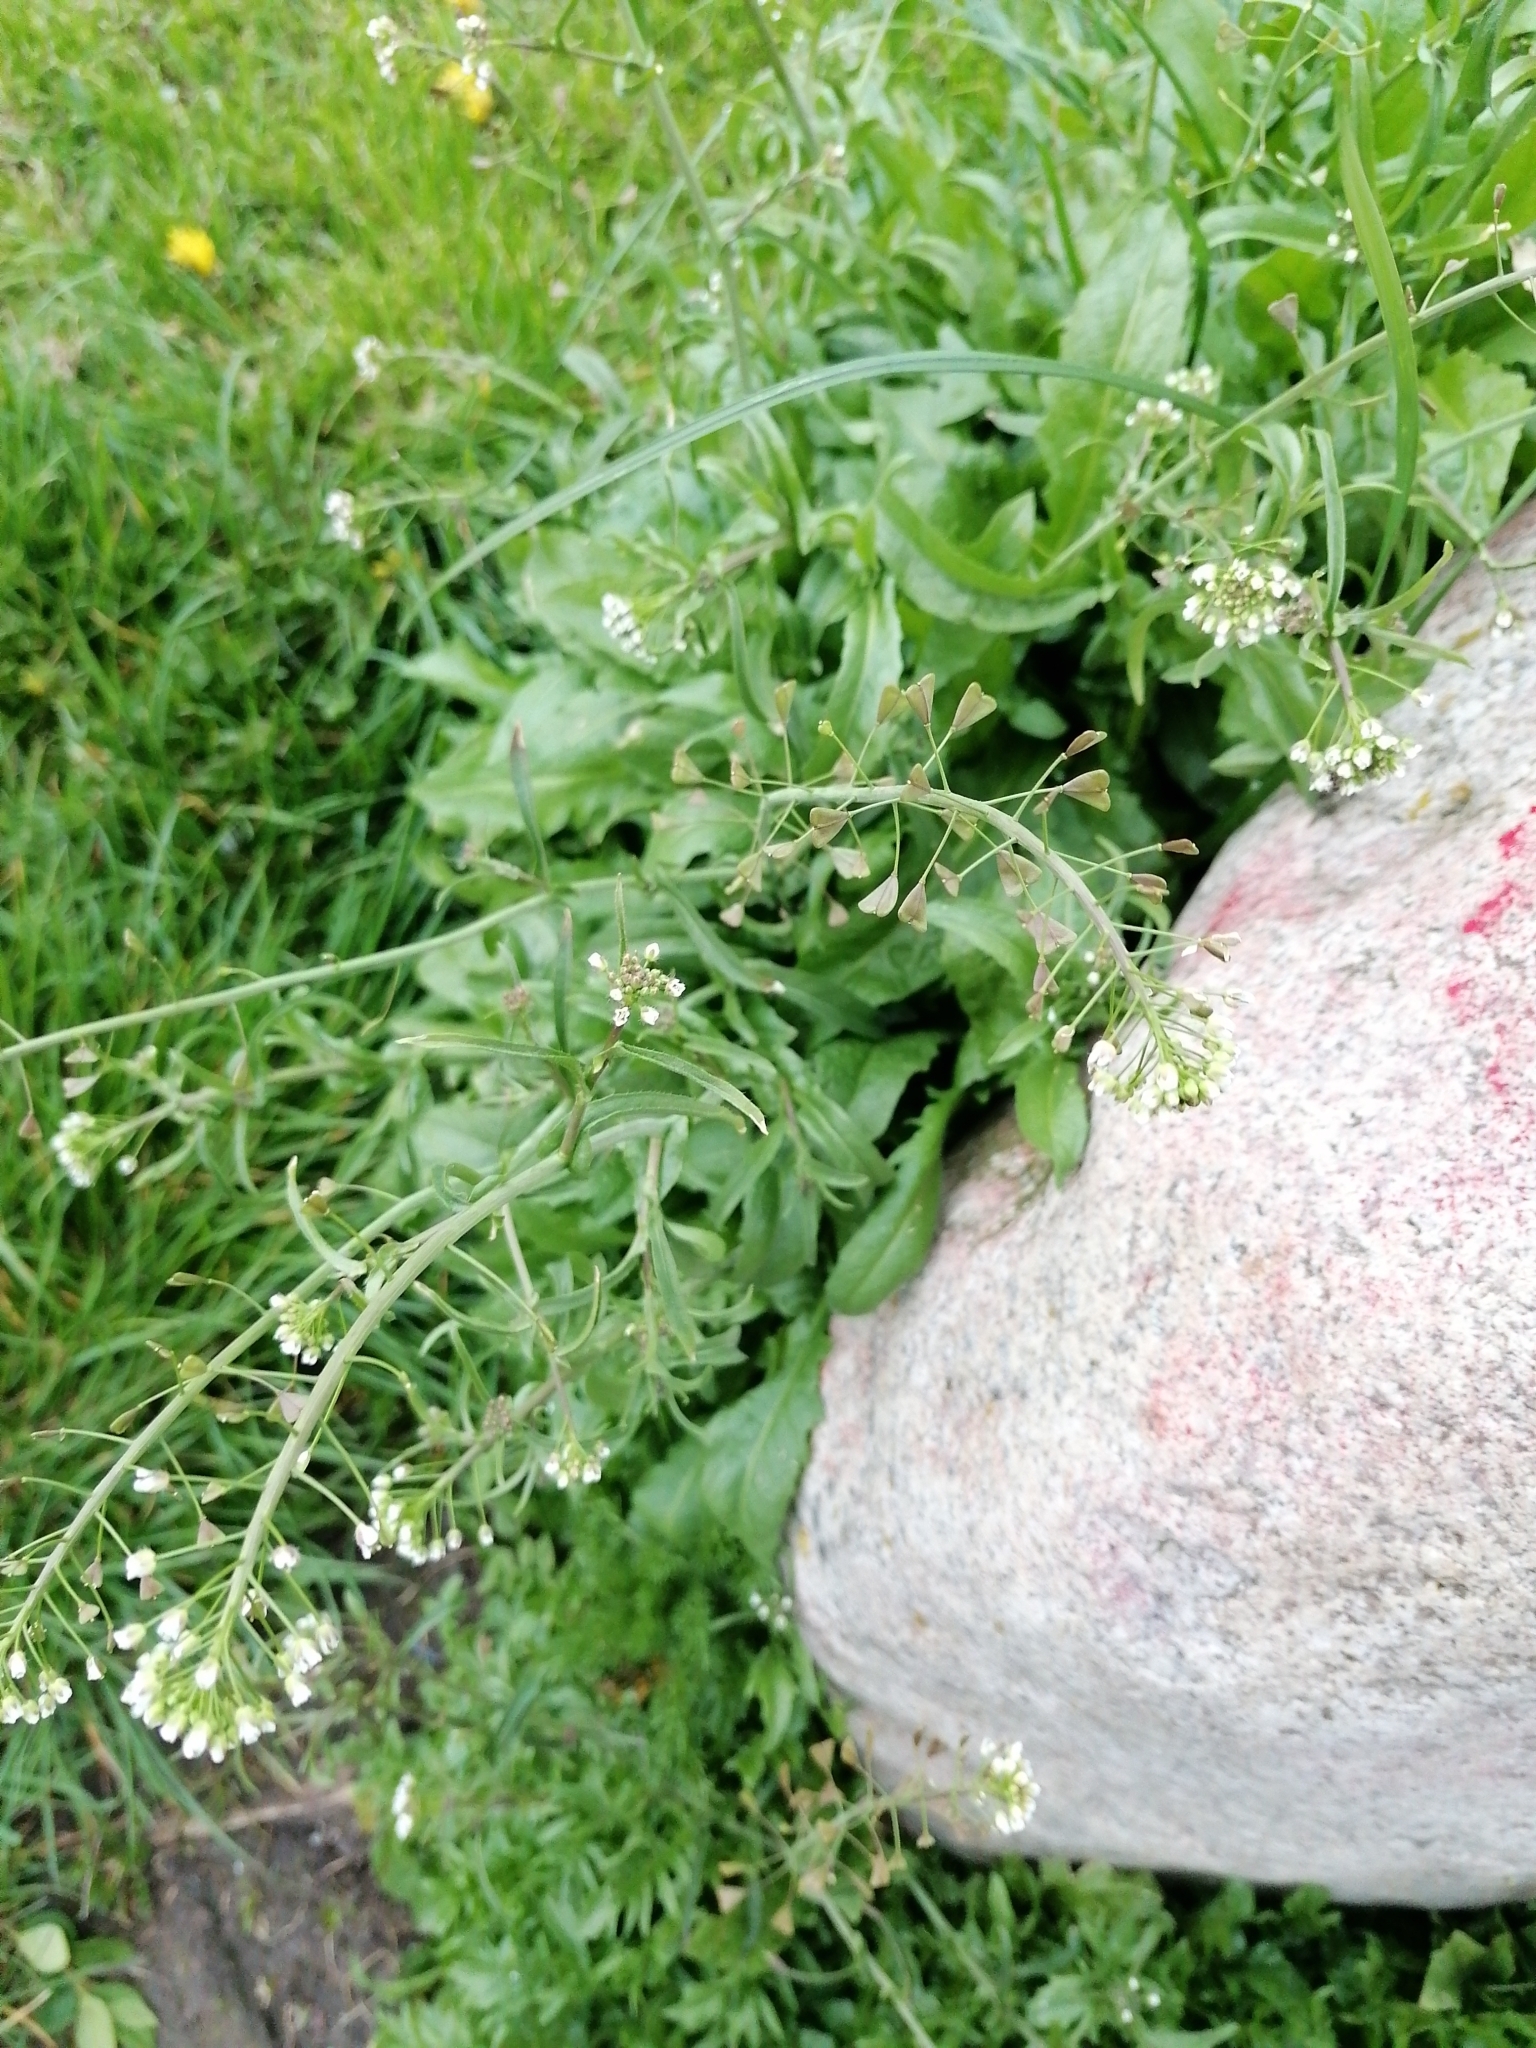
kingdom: Plantae
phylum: Tracheophyta
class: Magnoliopsida
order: Brassicales
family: Brassicaceae
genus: Capsella
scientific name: Capsella bursa-pastoris
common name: Shepherd's purse
